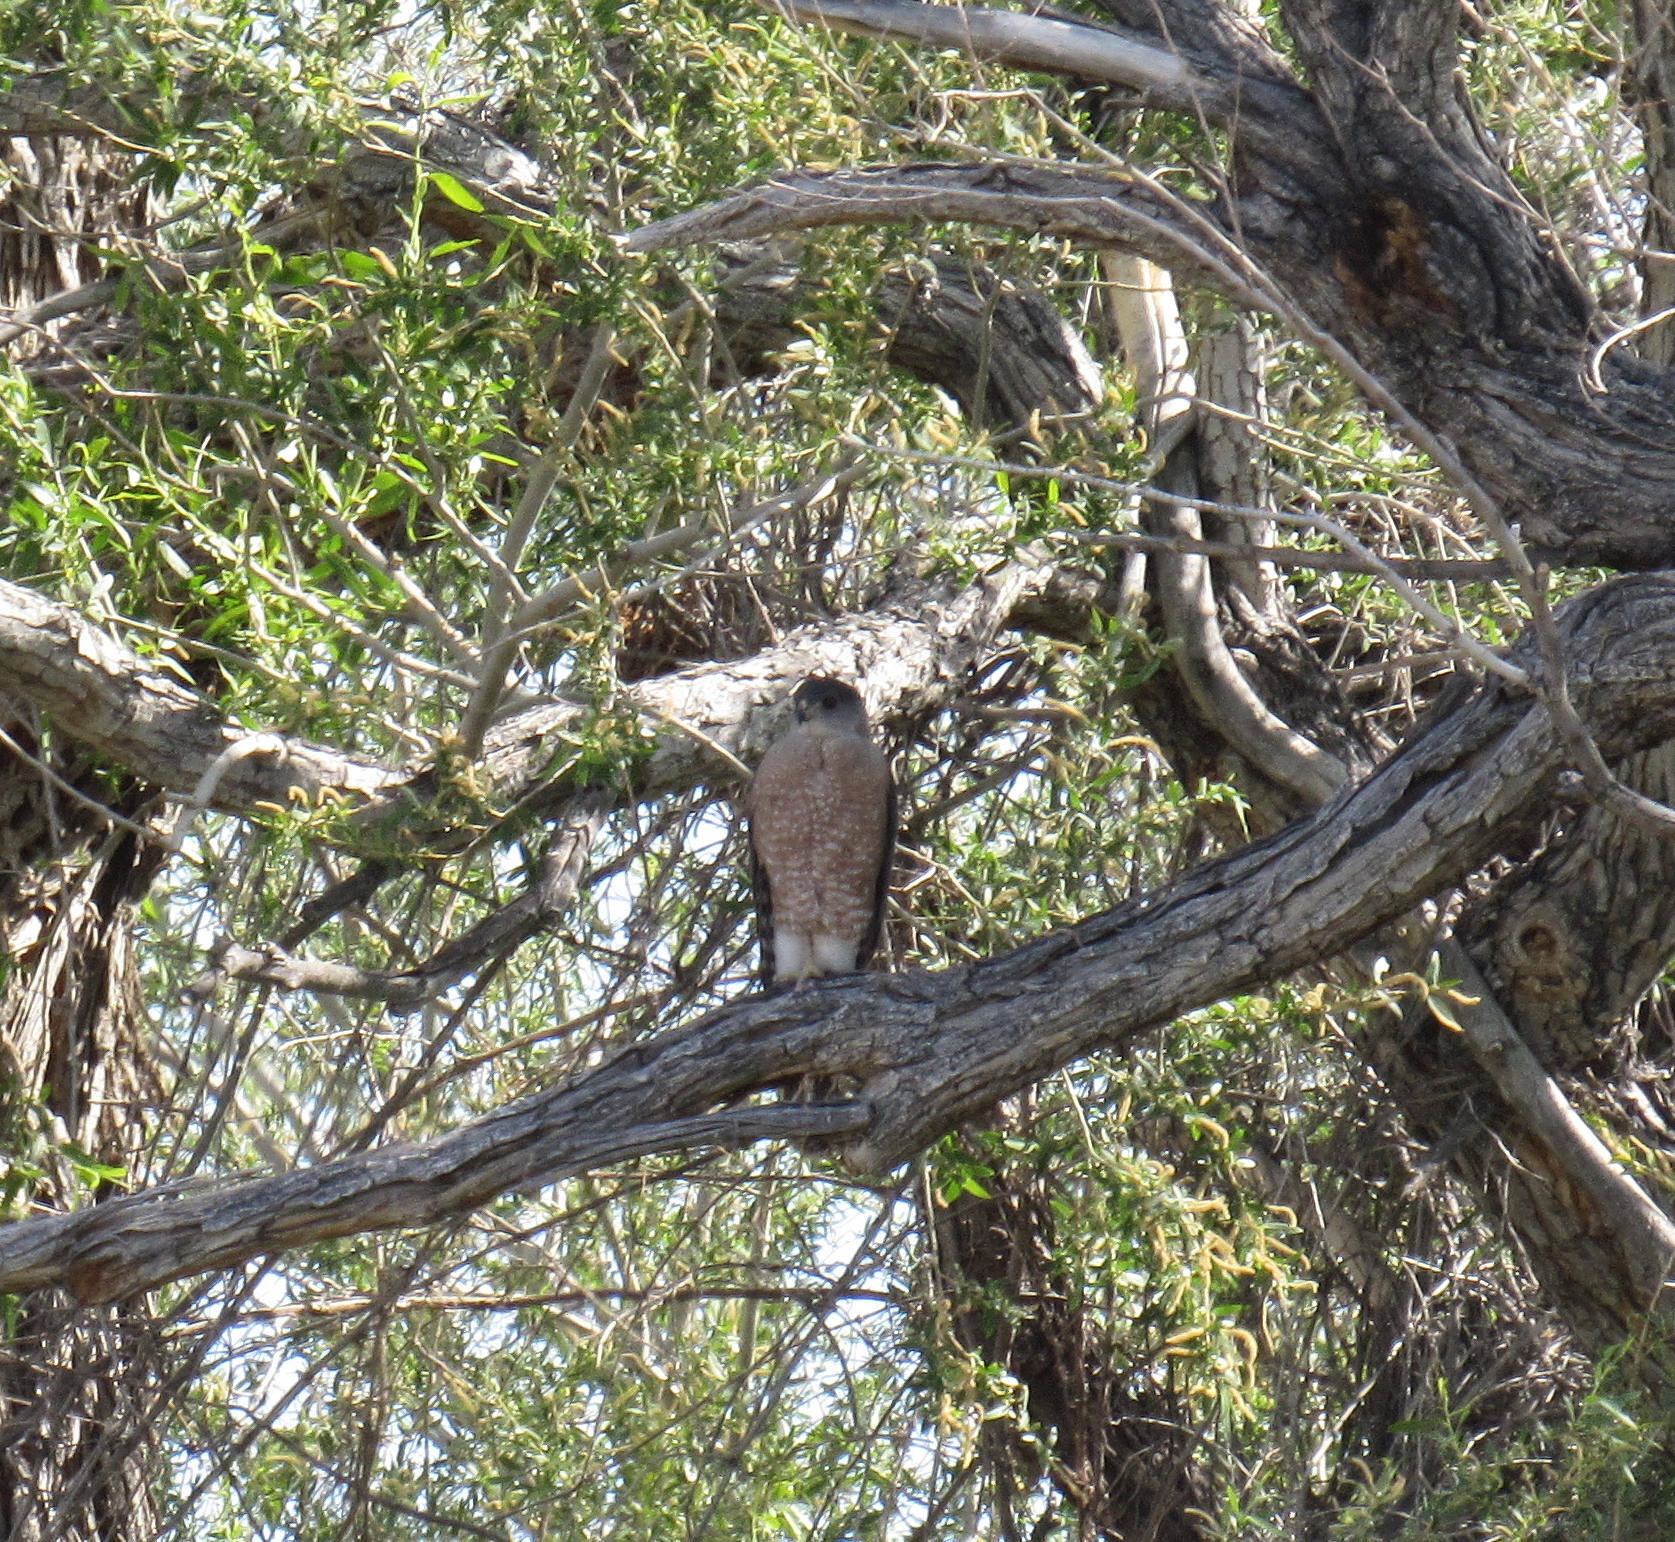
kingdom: Animalia
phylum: Chordata
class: Aves
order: Accipitriformes
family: Accipitridae
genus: Accipiter
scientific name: Accipiter cooperii
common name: Cooper's hawk
